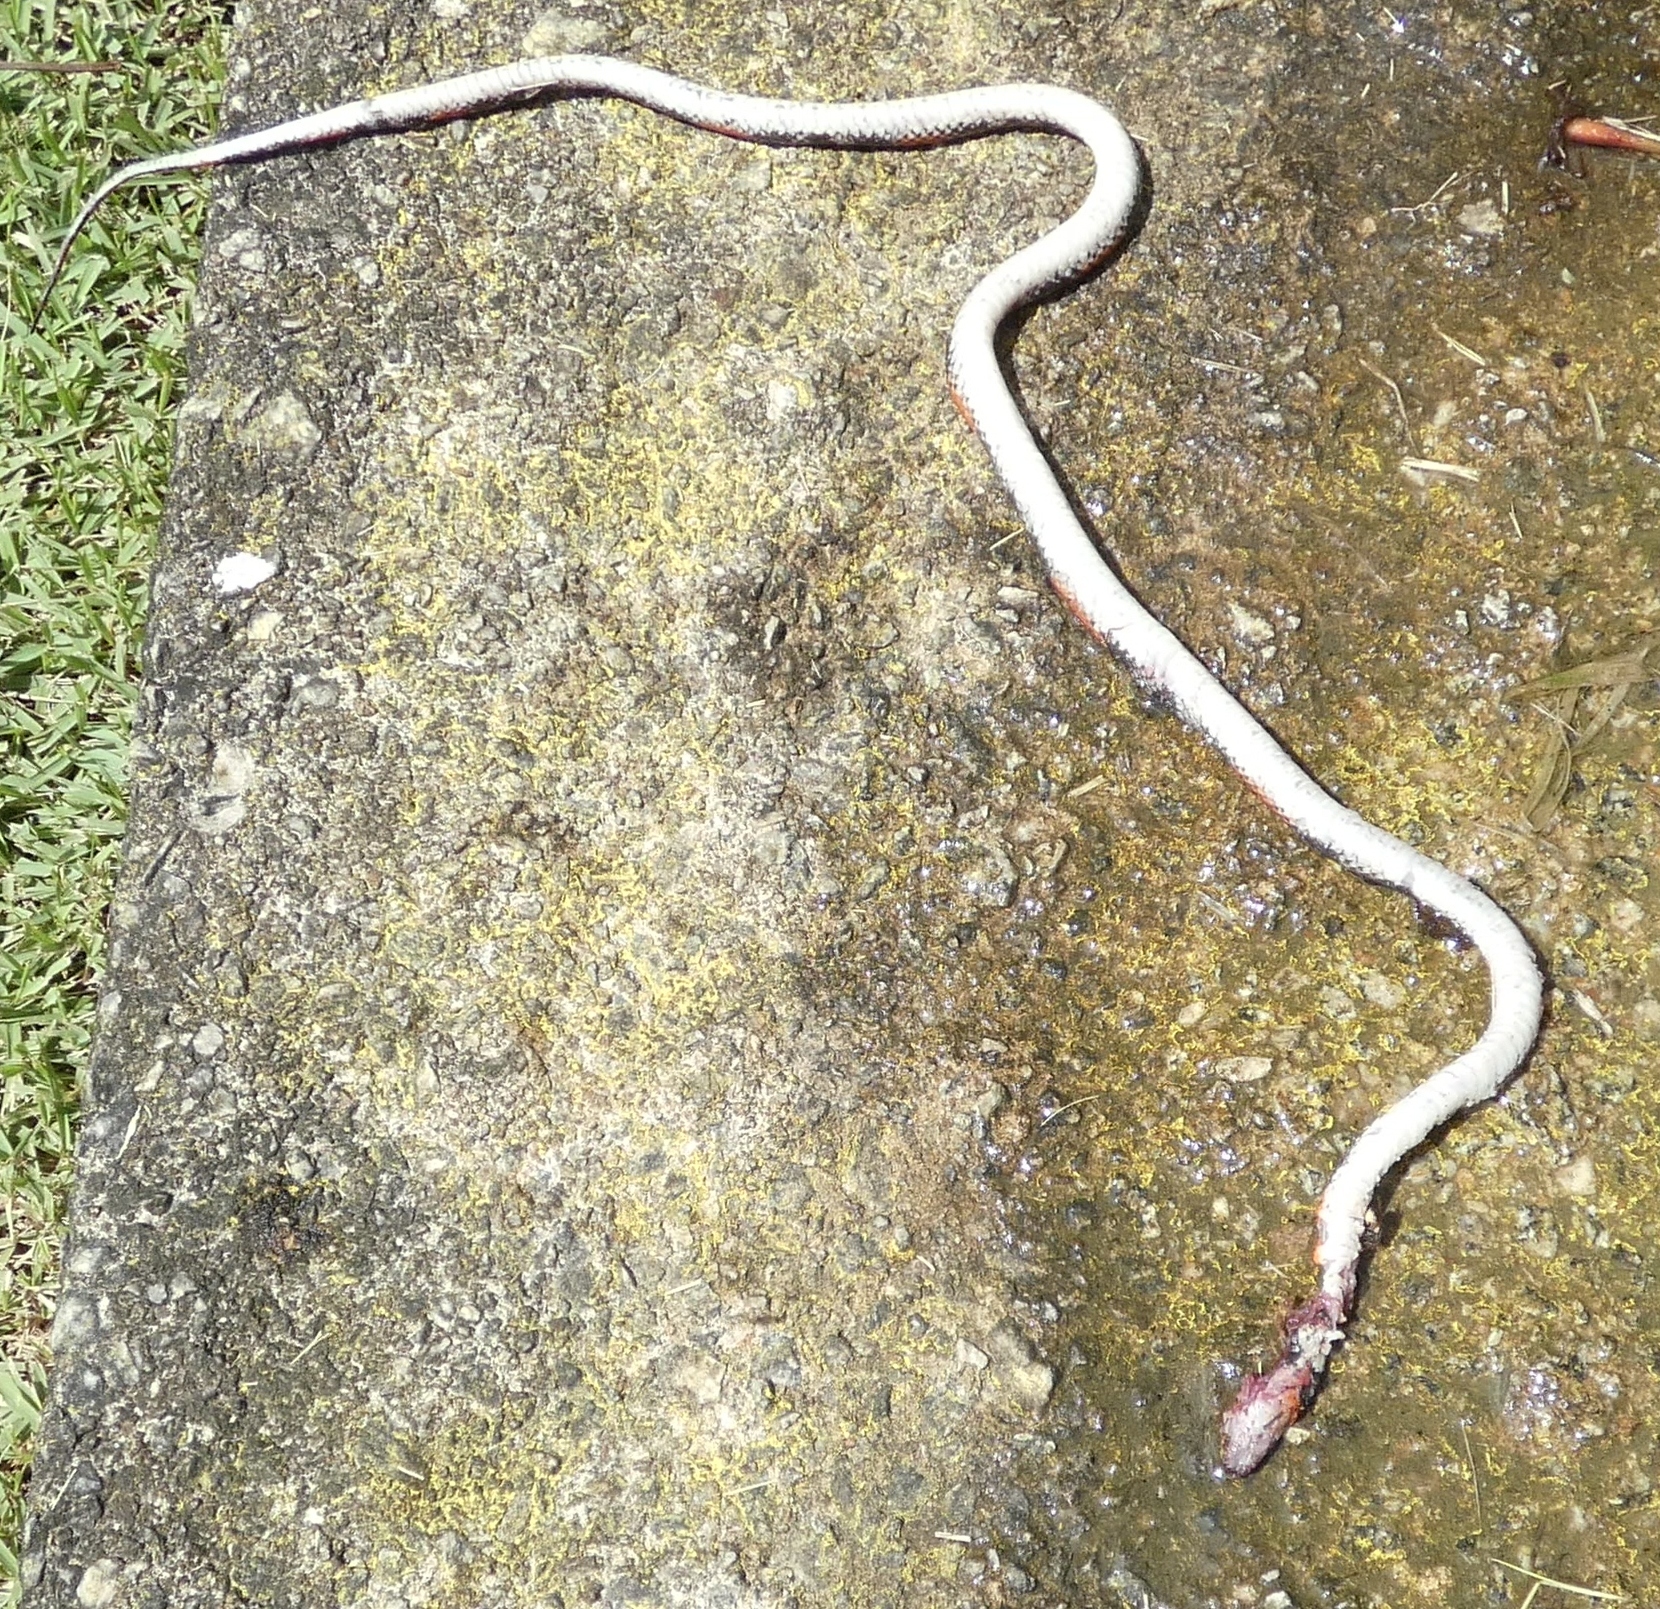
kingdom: Animalia
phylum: Chordata
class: Squamata
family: Colubridae
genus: Oxyrhopus
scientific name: Oxyrhopus trigeminus
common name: Brazilian false coral snake
